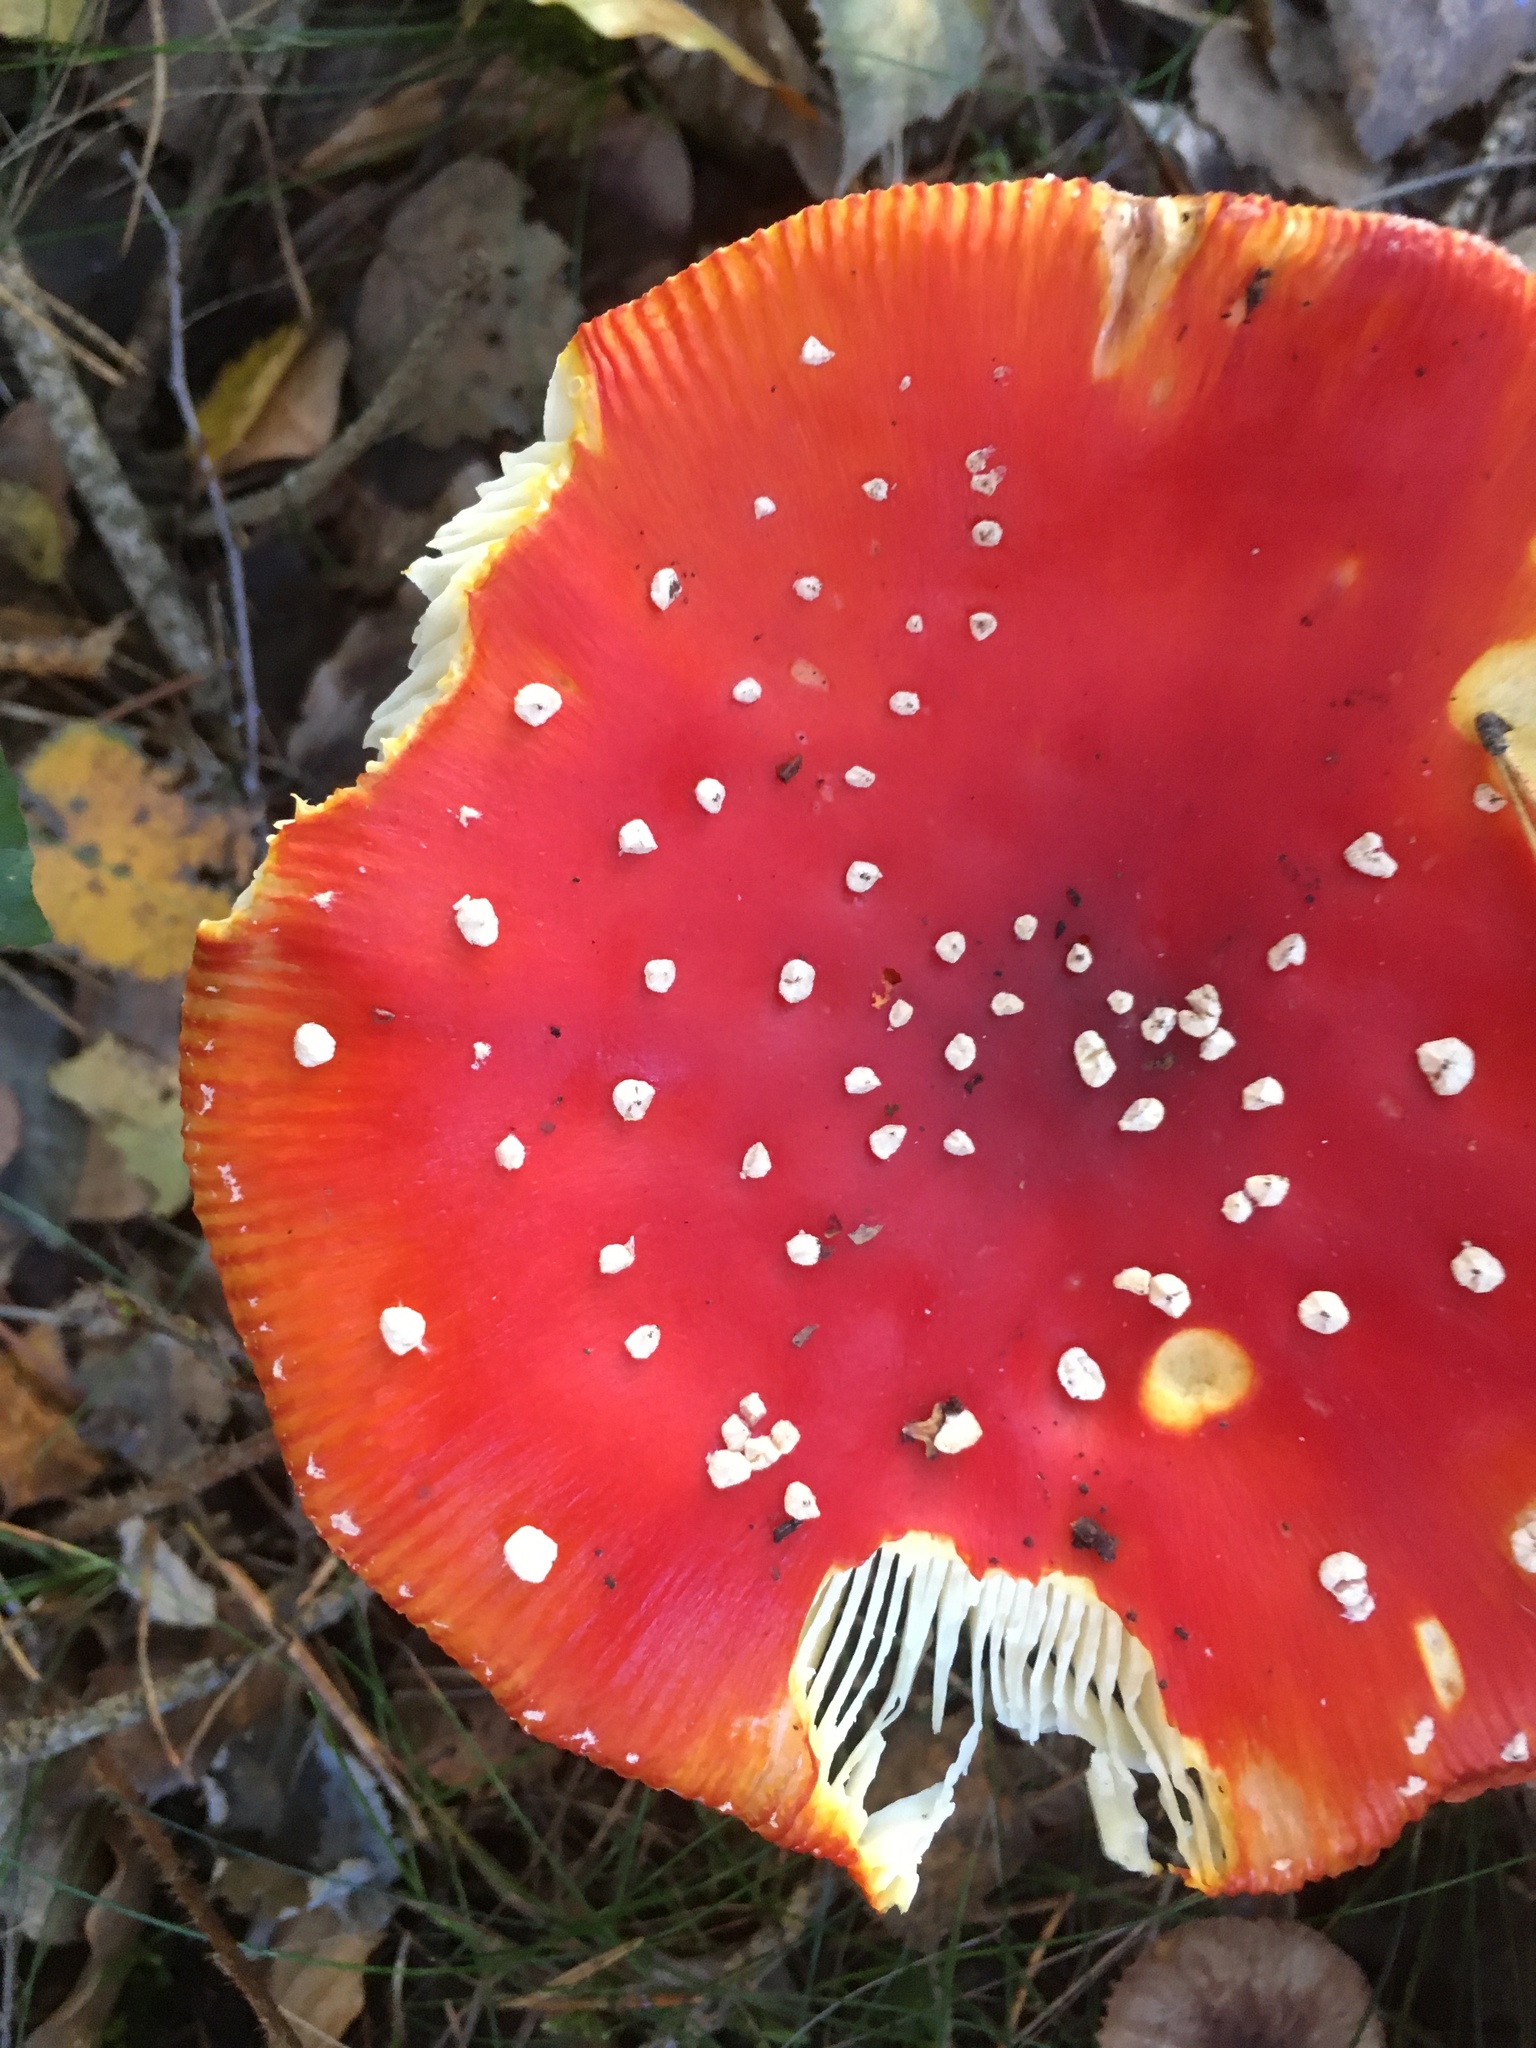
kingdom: Fungi
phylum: Basidiomycota
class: Agaricomycetes
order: Agaricales
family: Amanitaceae
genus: Amanita
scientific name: Amanita muscaria
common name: Fly agaric
